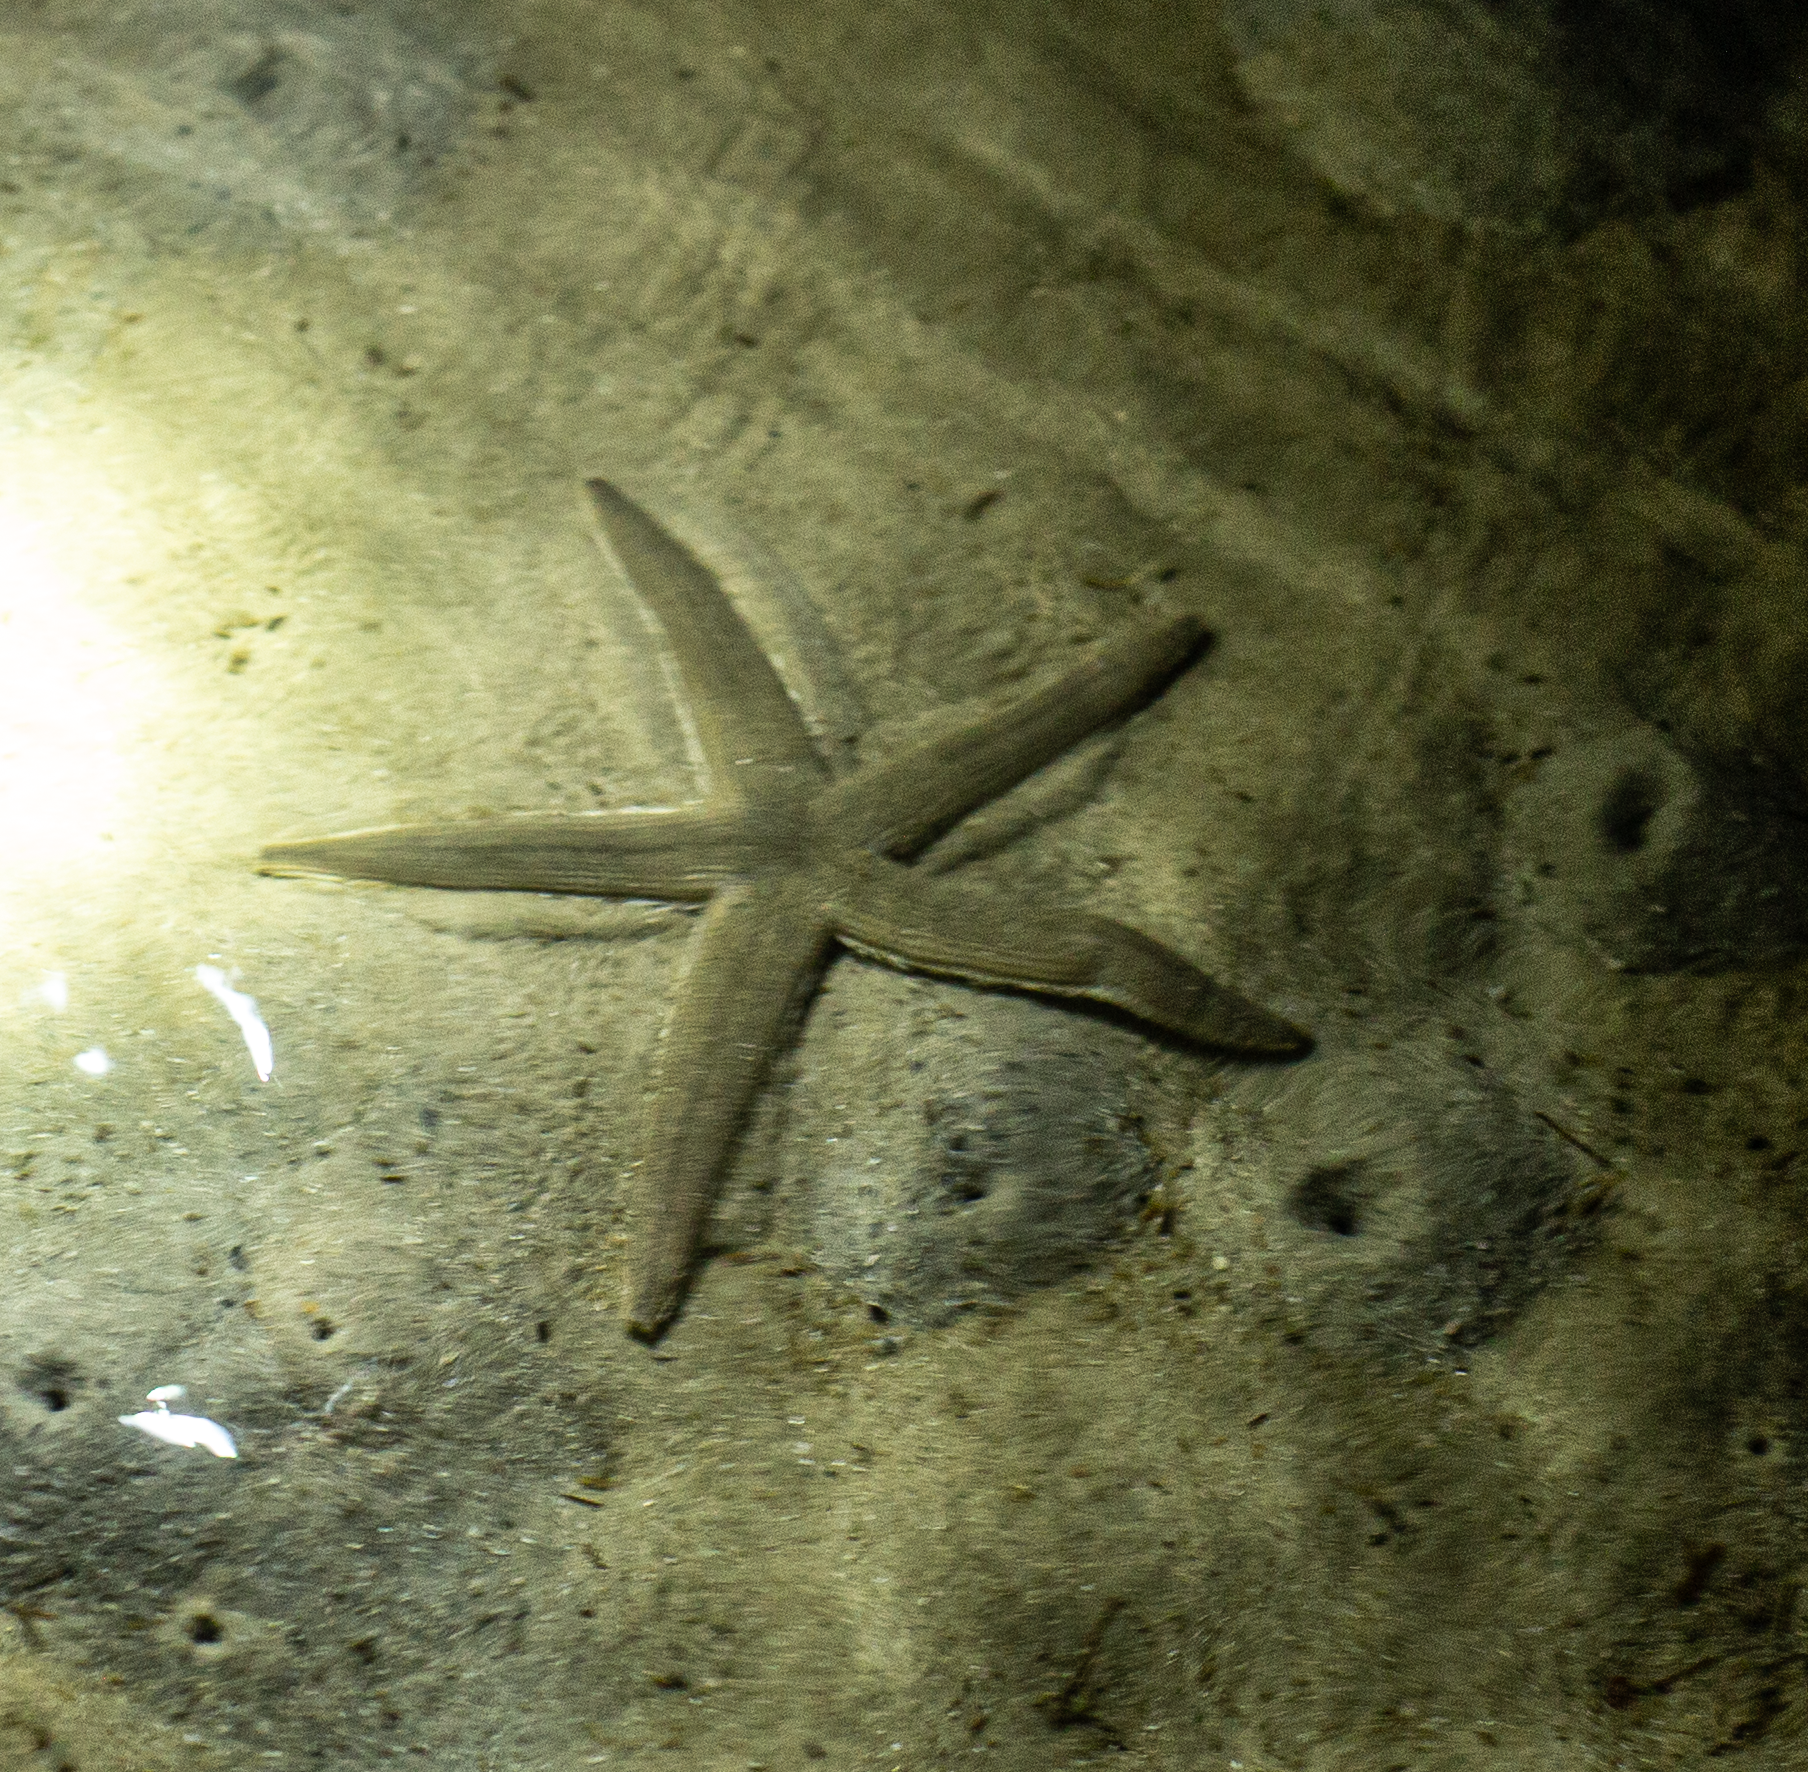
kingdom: Animalia
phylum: Echinodermata
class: Asteroidea
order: Paxillosida
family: Luidiidae
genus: Luidia
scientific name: Luidia clathrata
